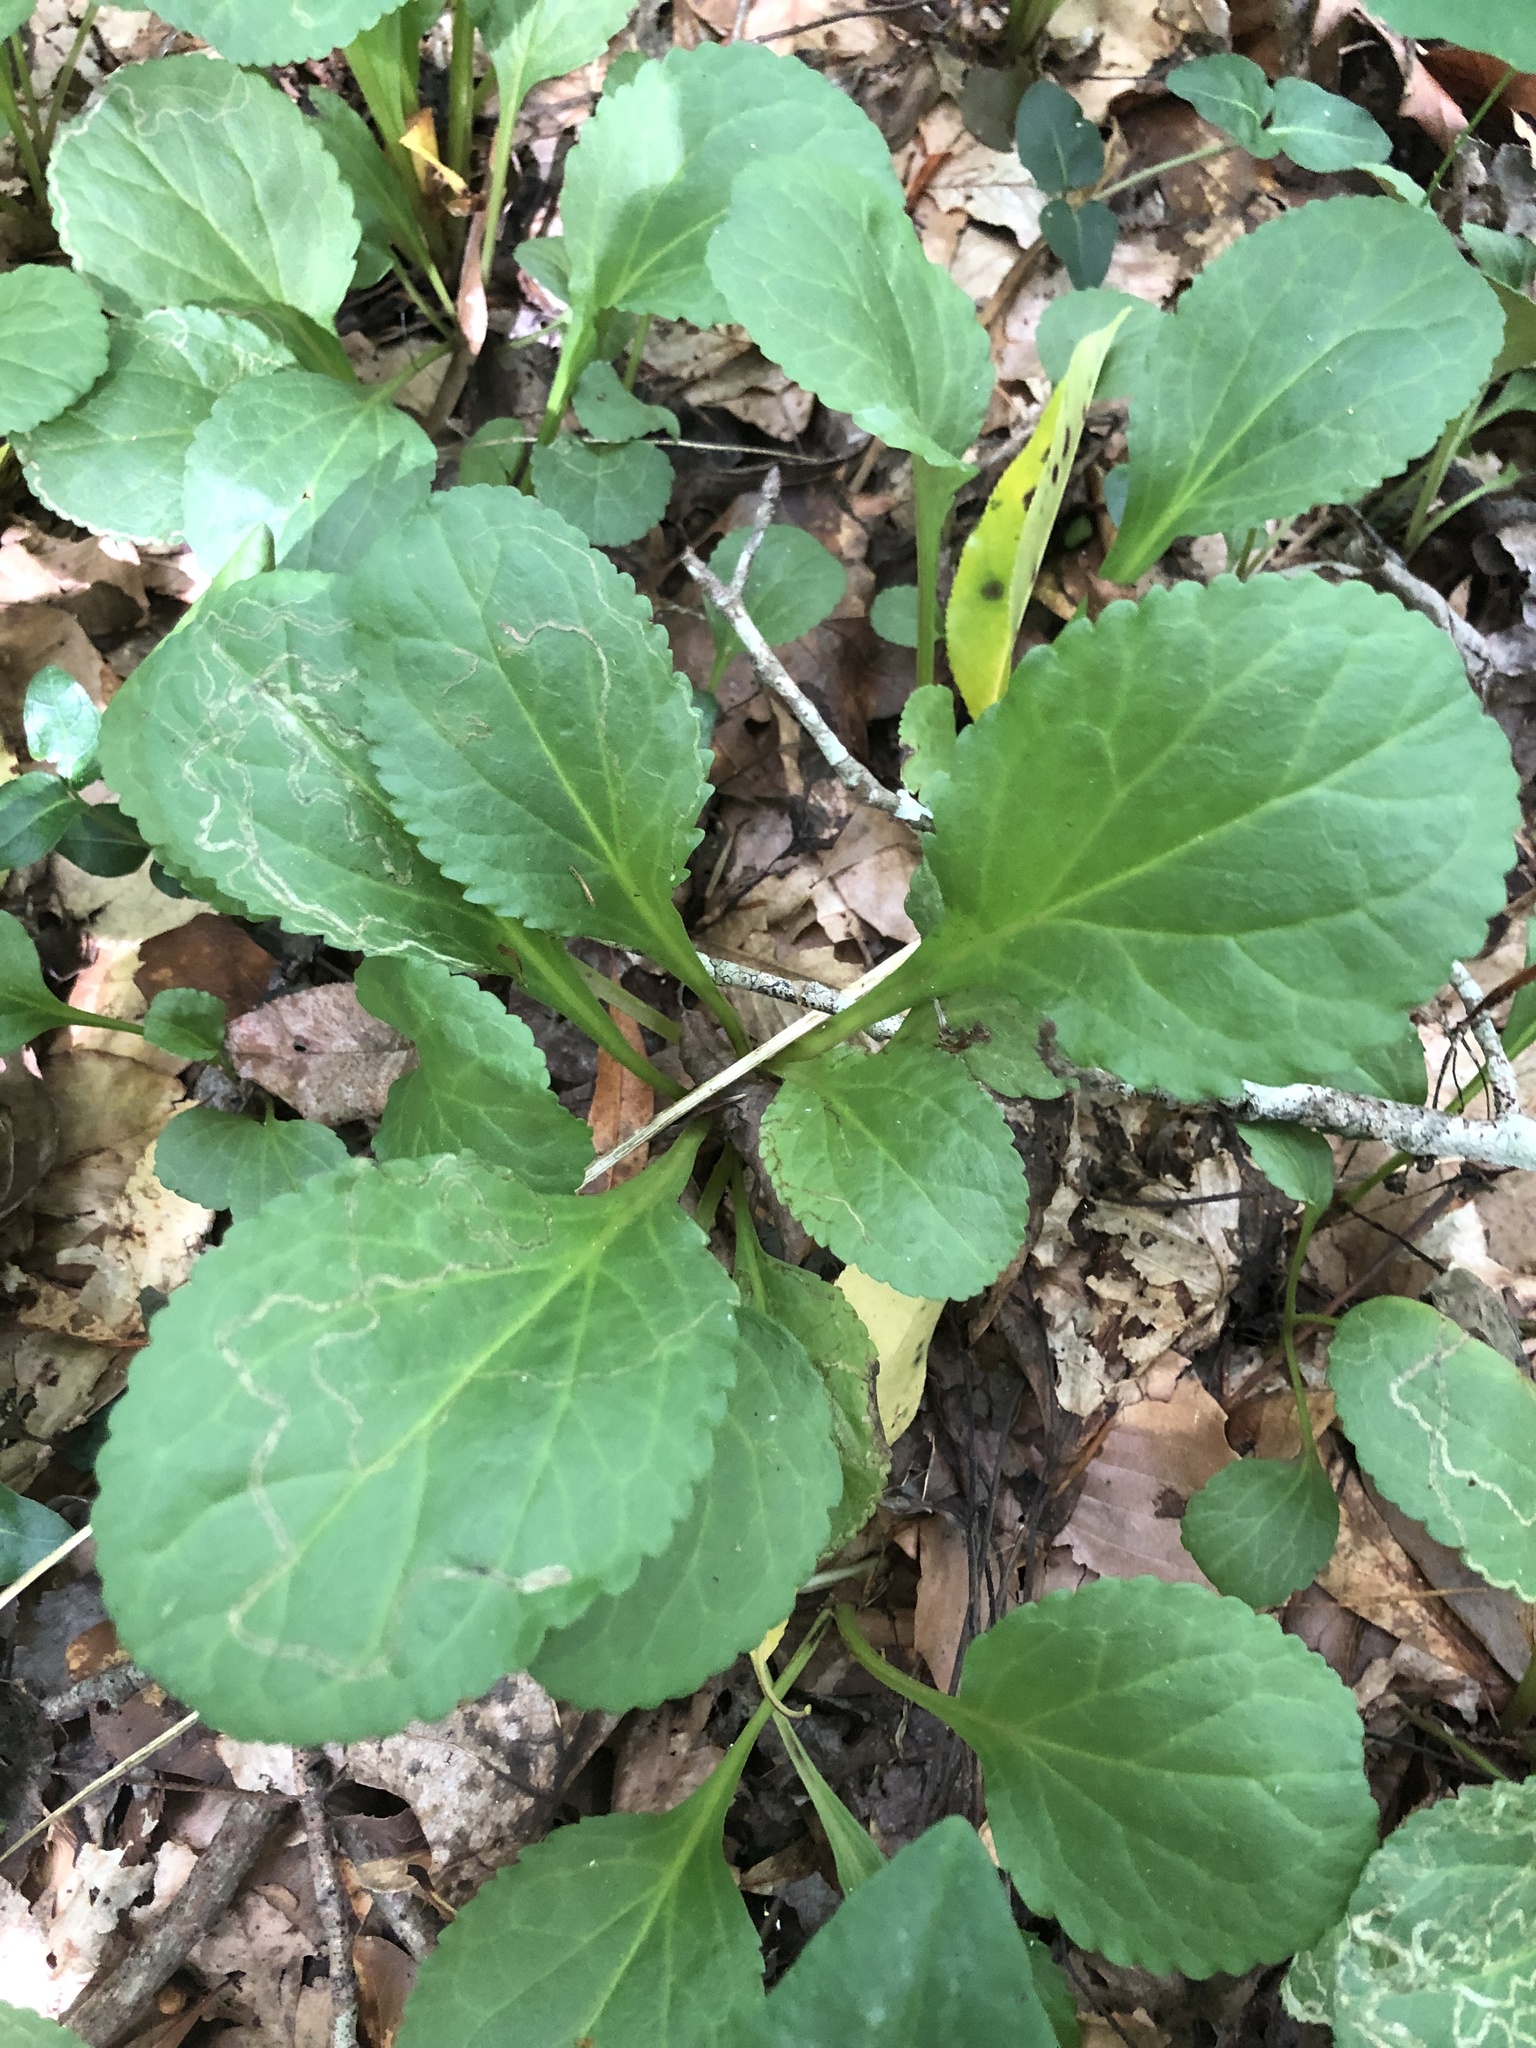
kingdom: Plantae
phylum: Tracheophyta
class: Magnoliopsida
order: Asterales
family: Asteraceae
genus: Packera
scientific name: Packera obovata
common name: Round-leaf ragwort
